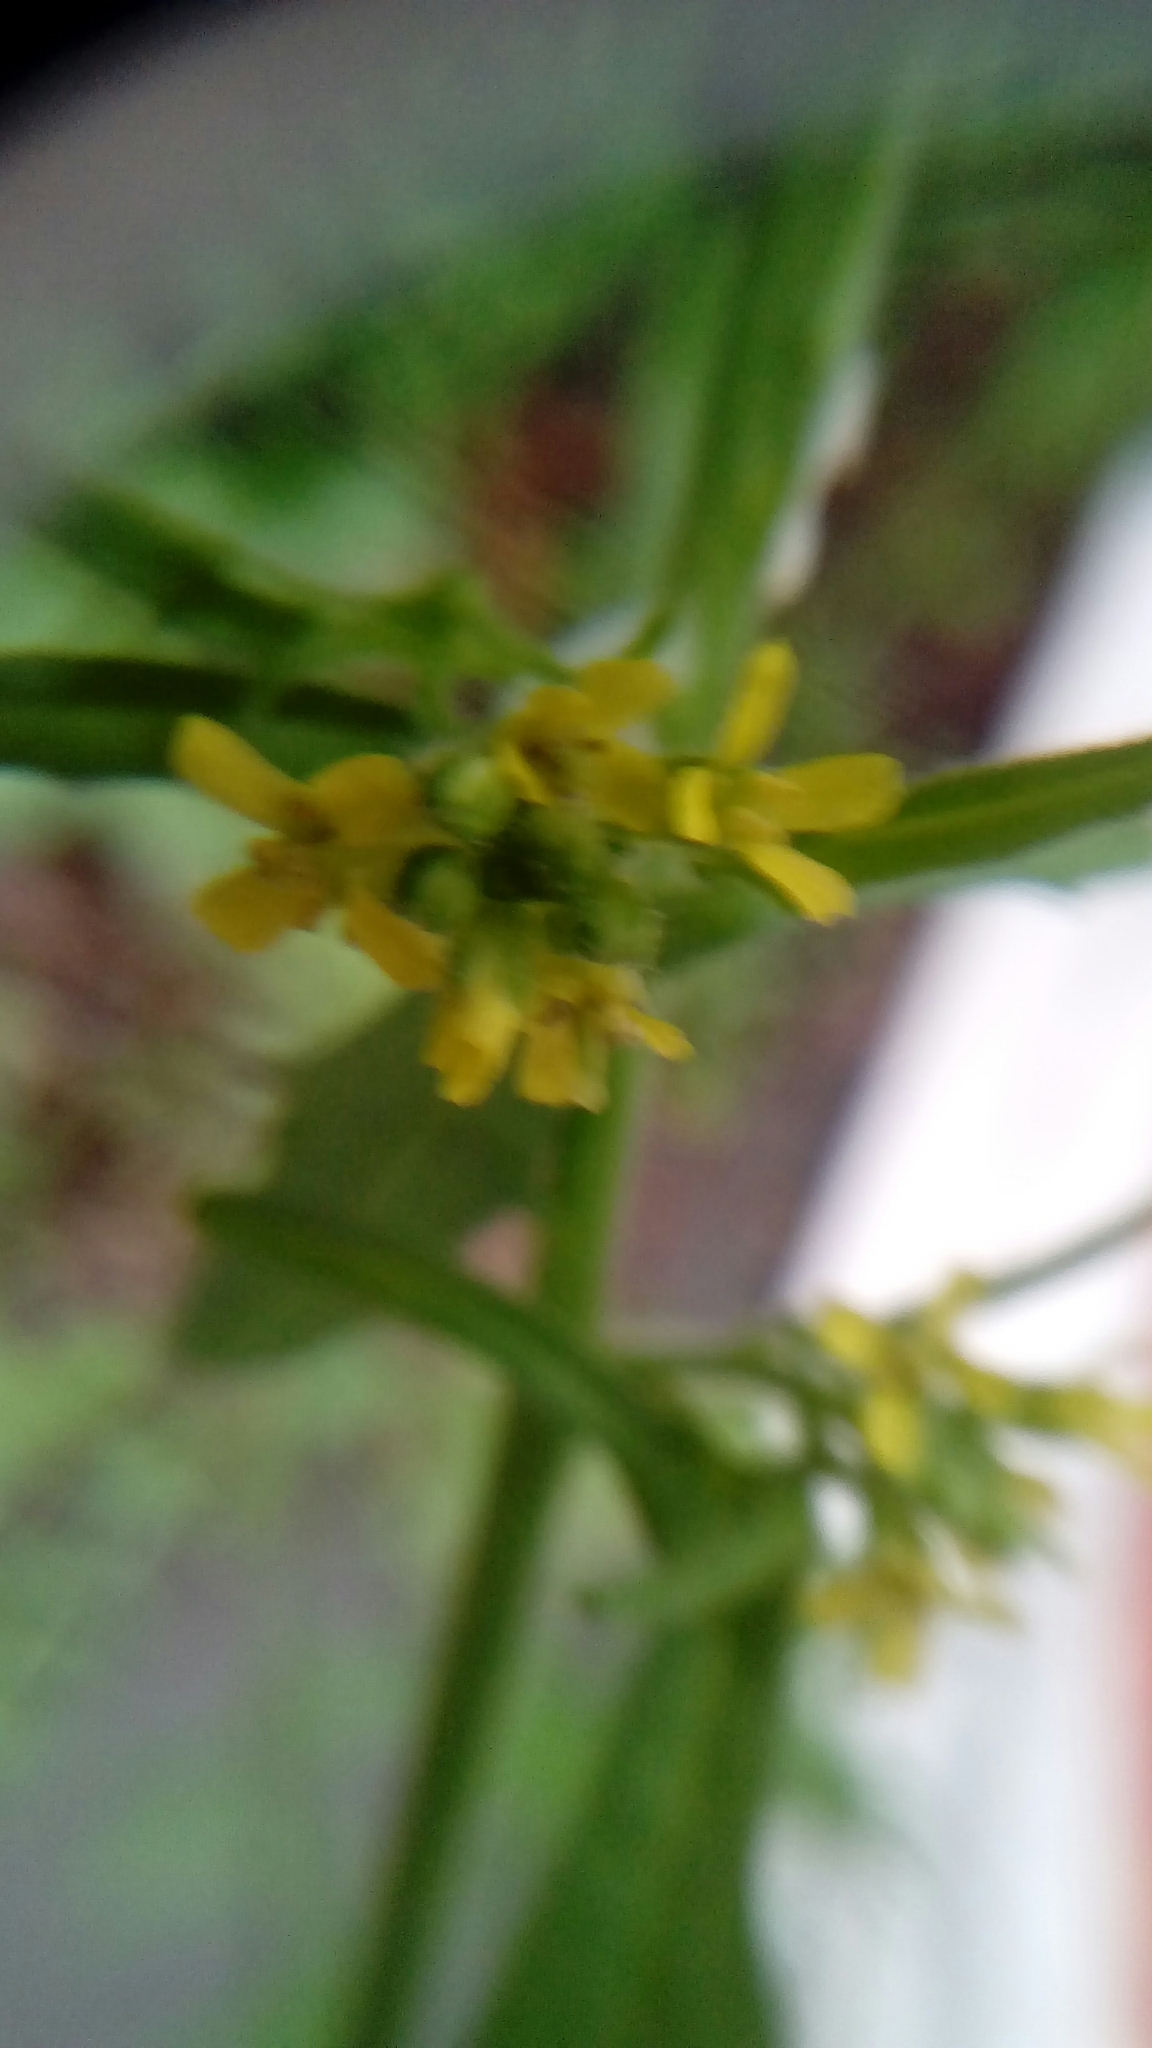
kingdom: Plantae
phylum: Tracheophyta
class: Magnoliopsida
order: Brassicales
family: Brassicaceae
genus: Sisymbrium
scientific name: Sisymbrium officinale
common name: Hedge mustard
